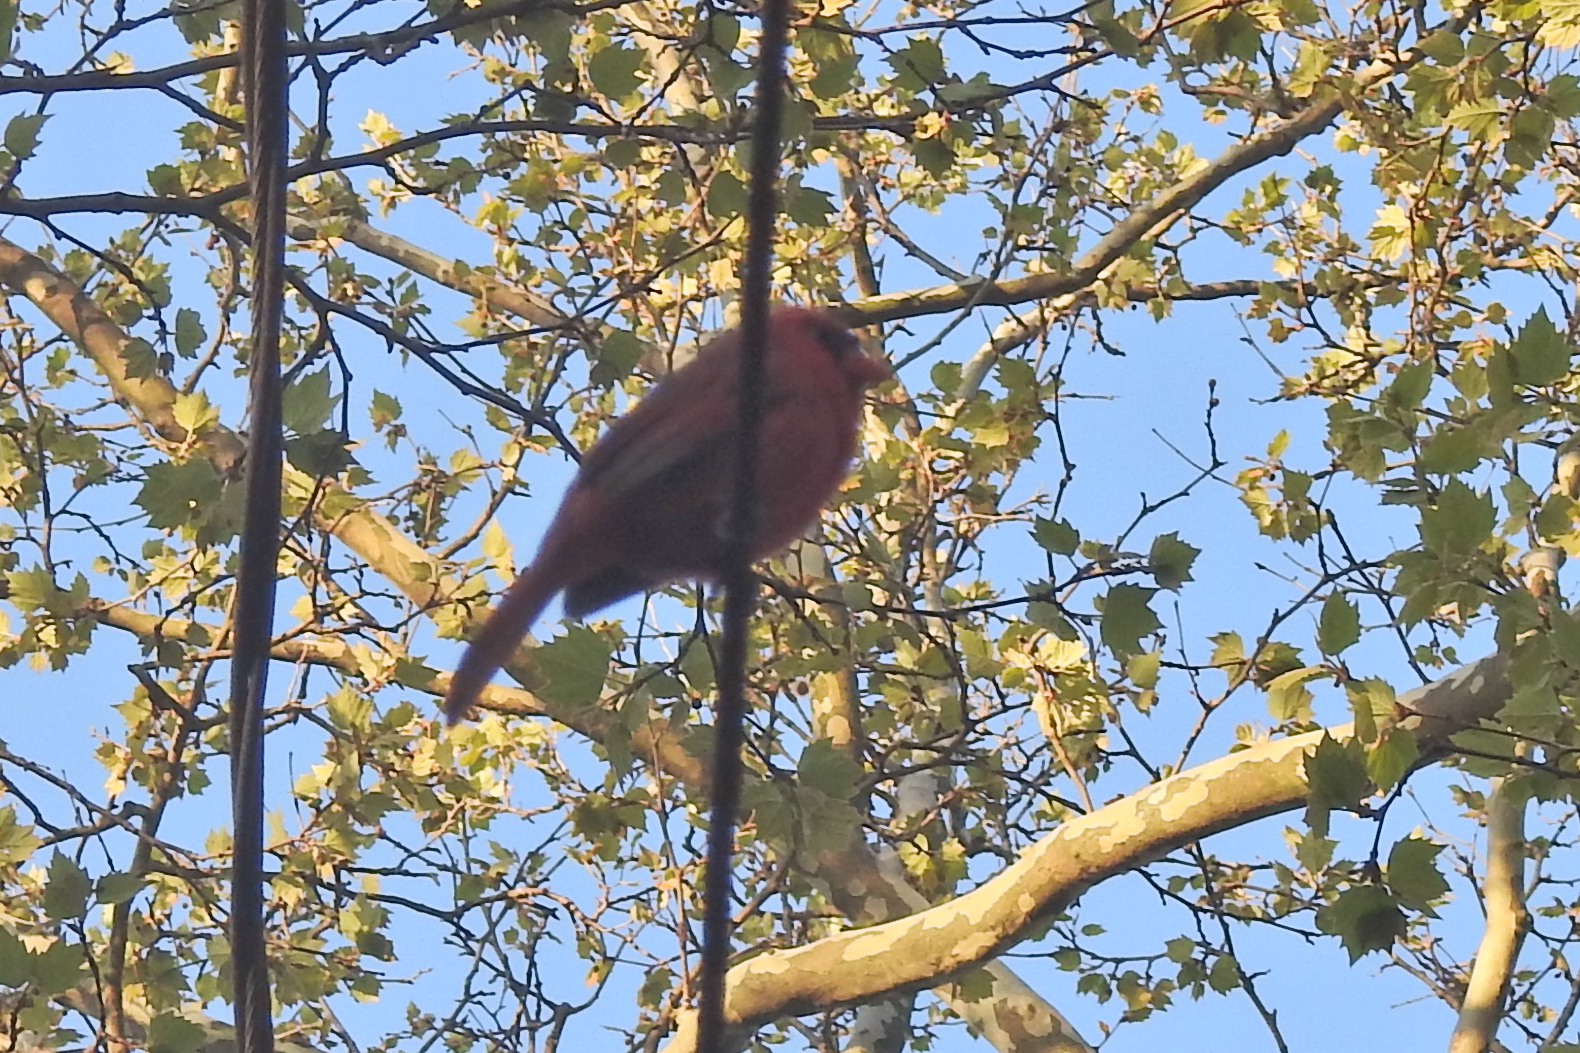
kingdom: Animalia
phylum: Chordata
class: Aves
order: Passeriformes
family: Cardinalidae
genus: Cardinalis
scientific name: Cardinalis cardinalis
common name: Northern cardinal
